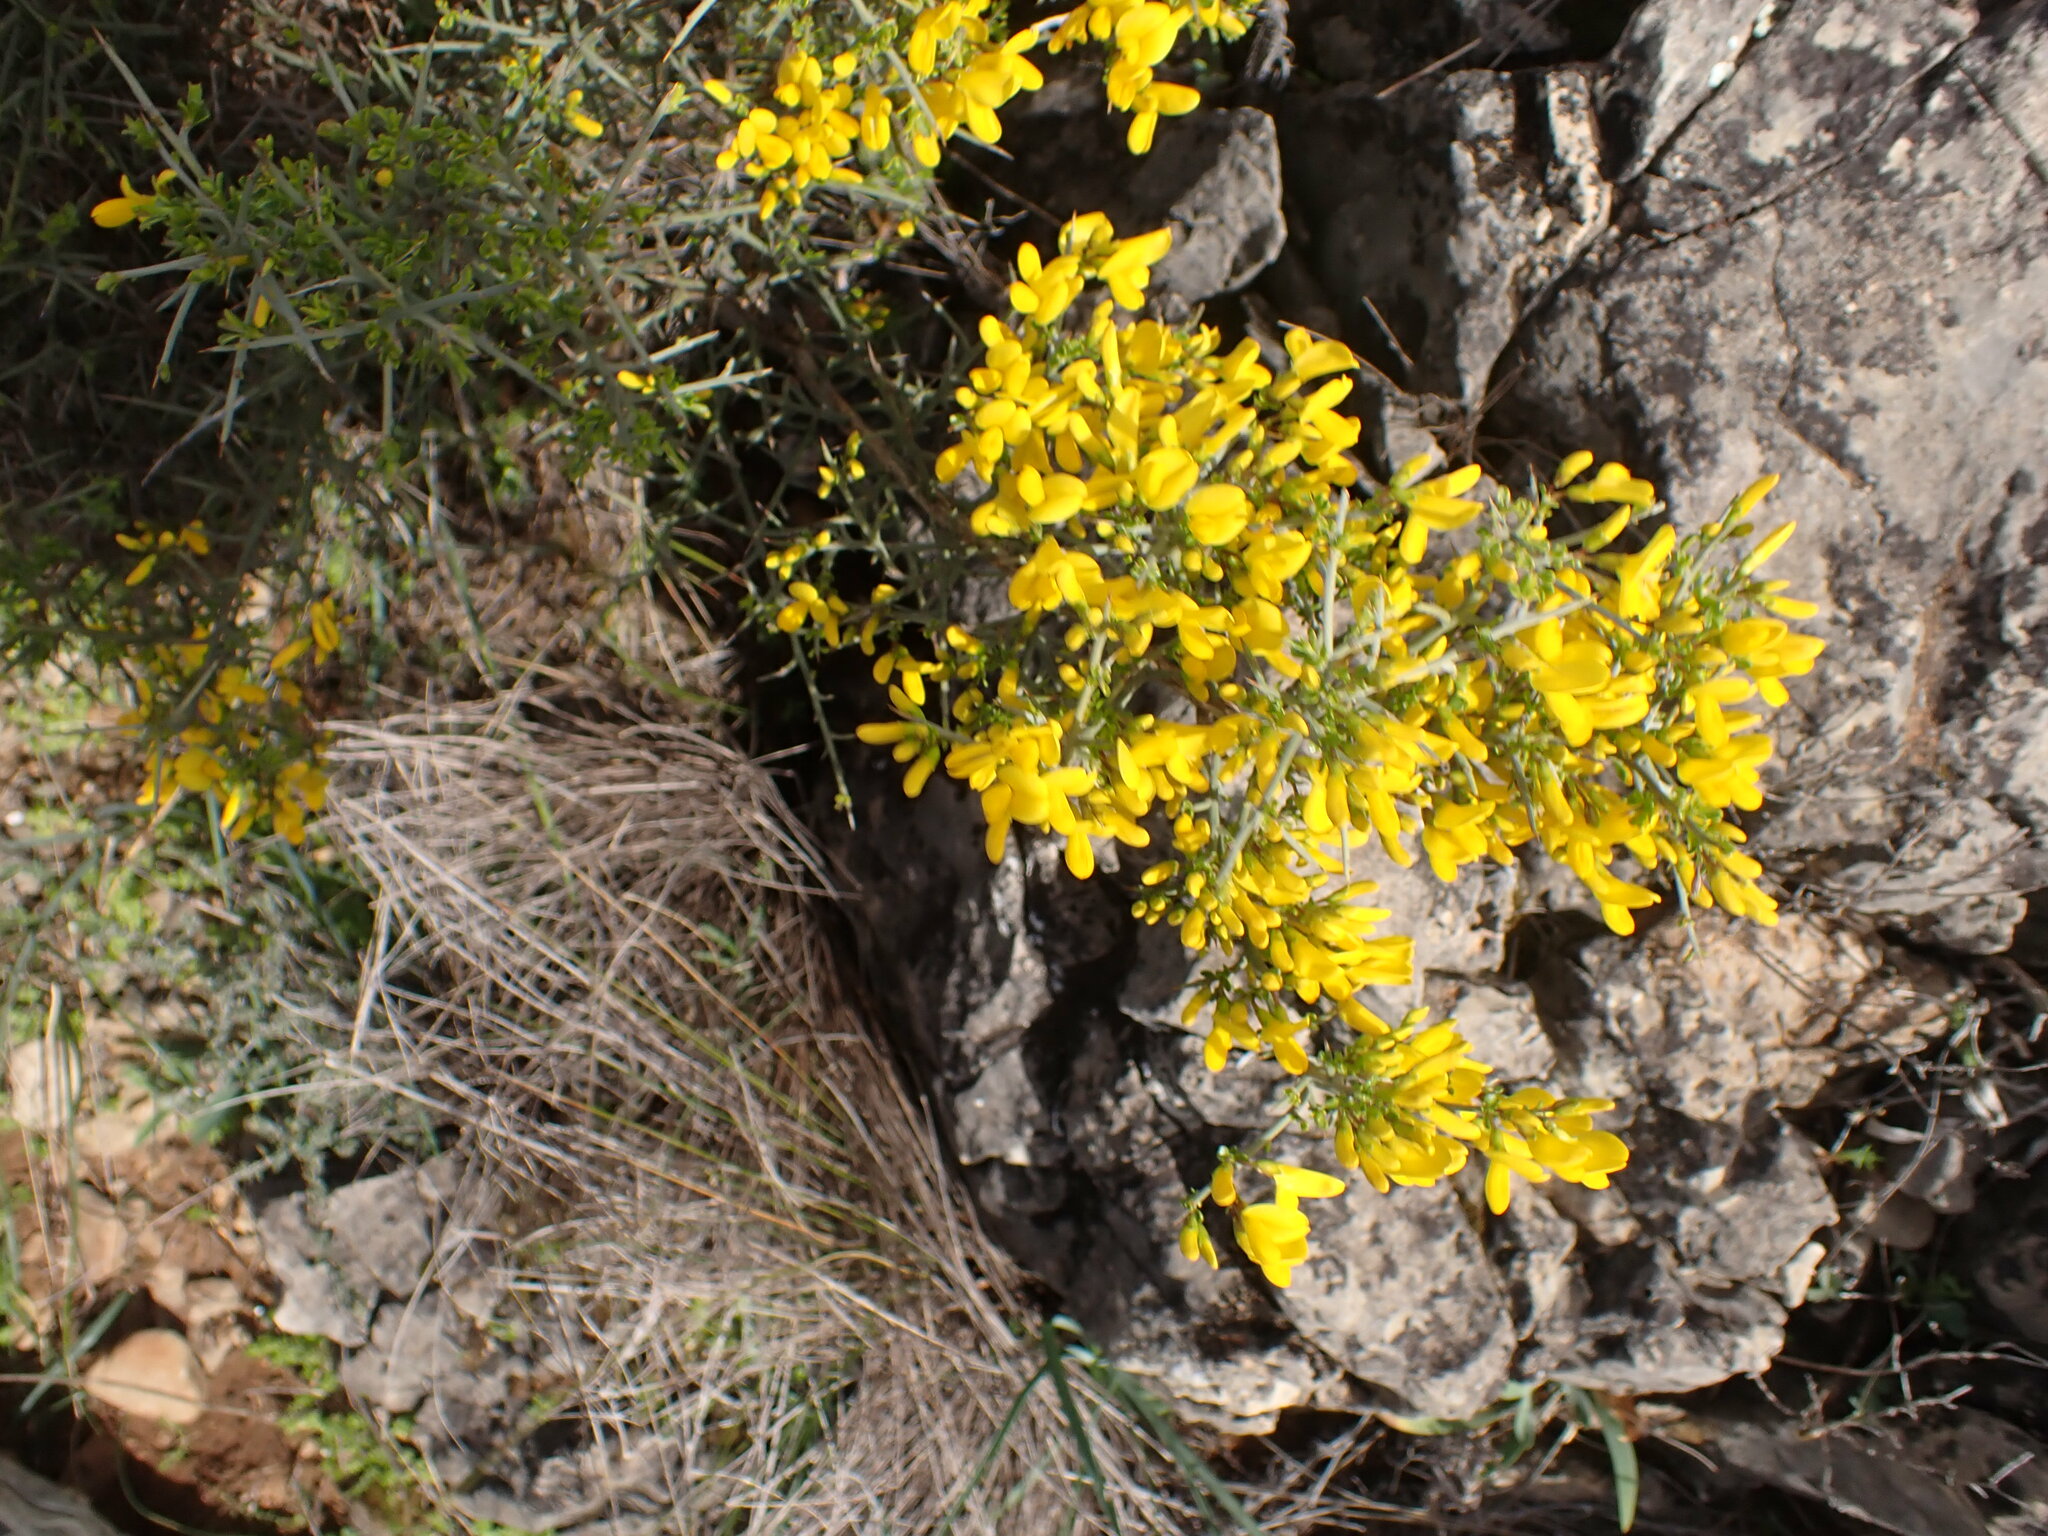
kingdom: Plantae
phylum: Tracheophyta
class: Magnoliopsida
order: Fabales
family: Fabaceae
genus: Genista
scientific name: Genista scorpius
